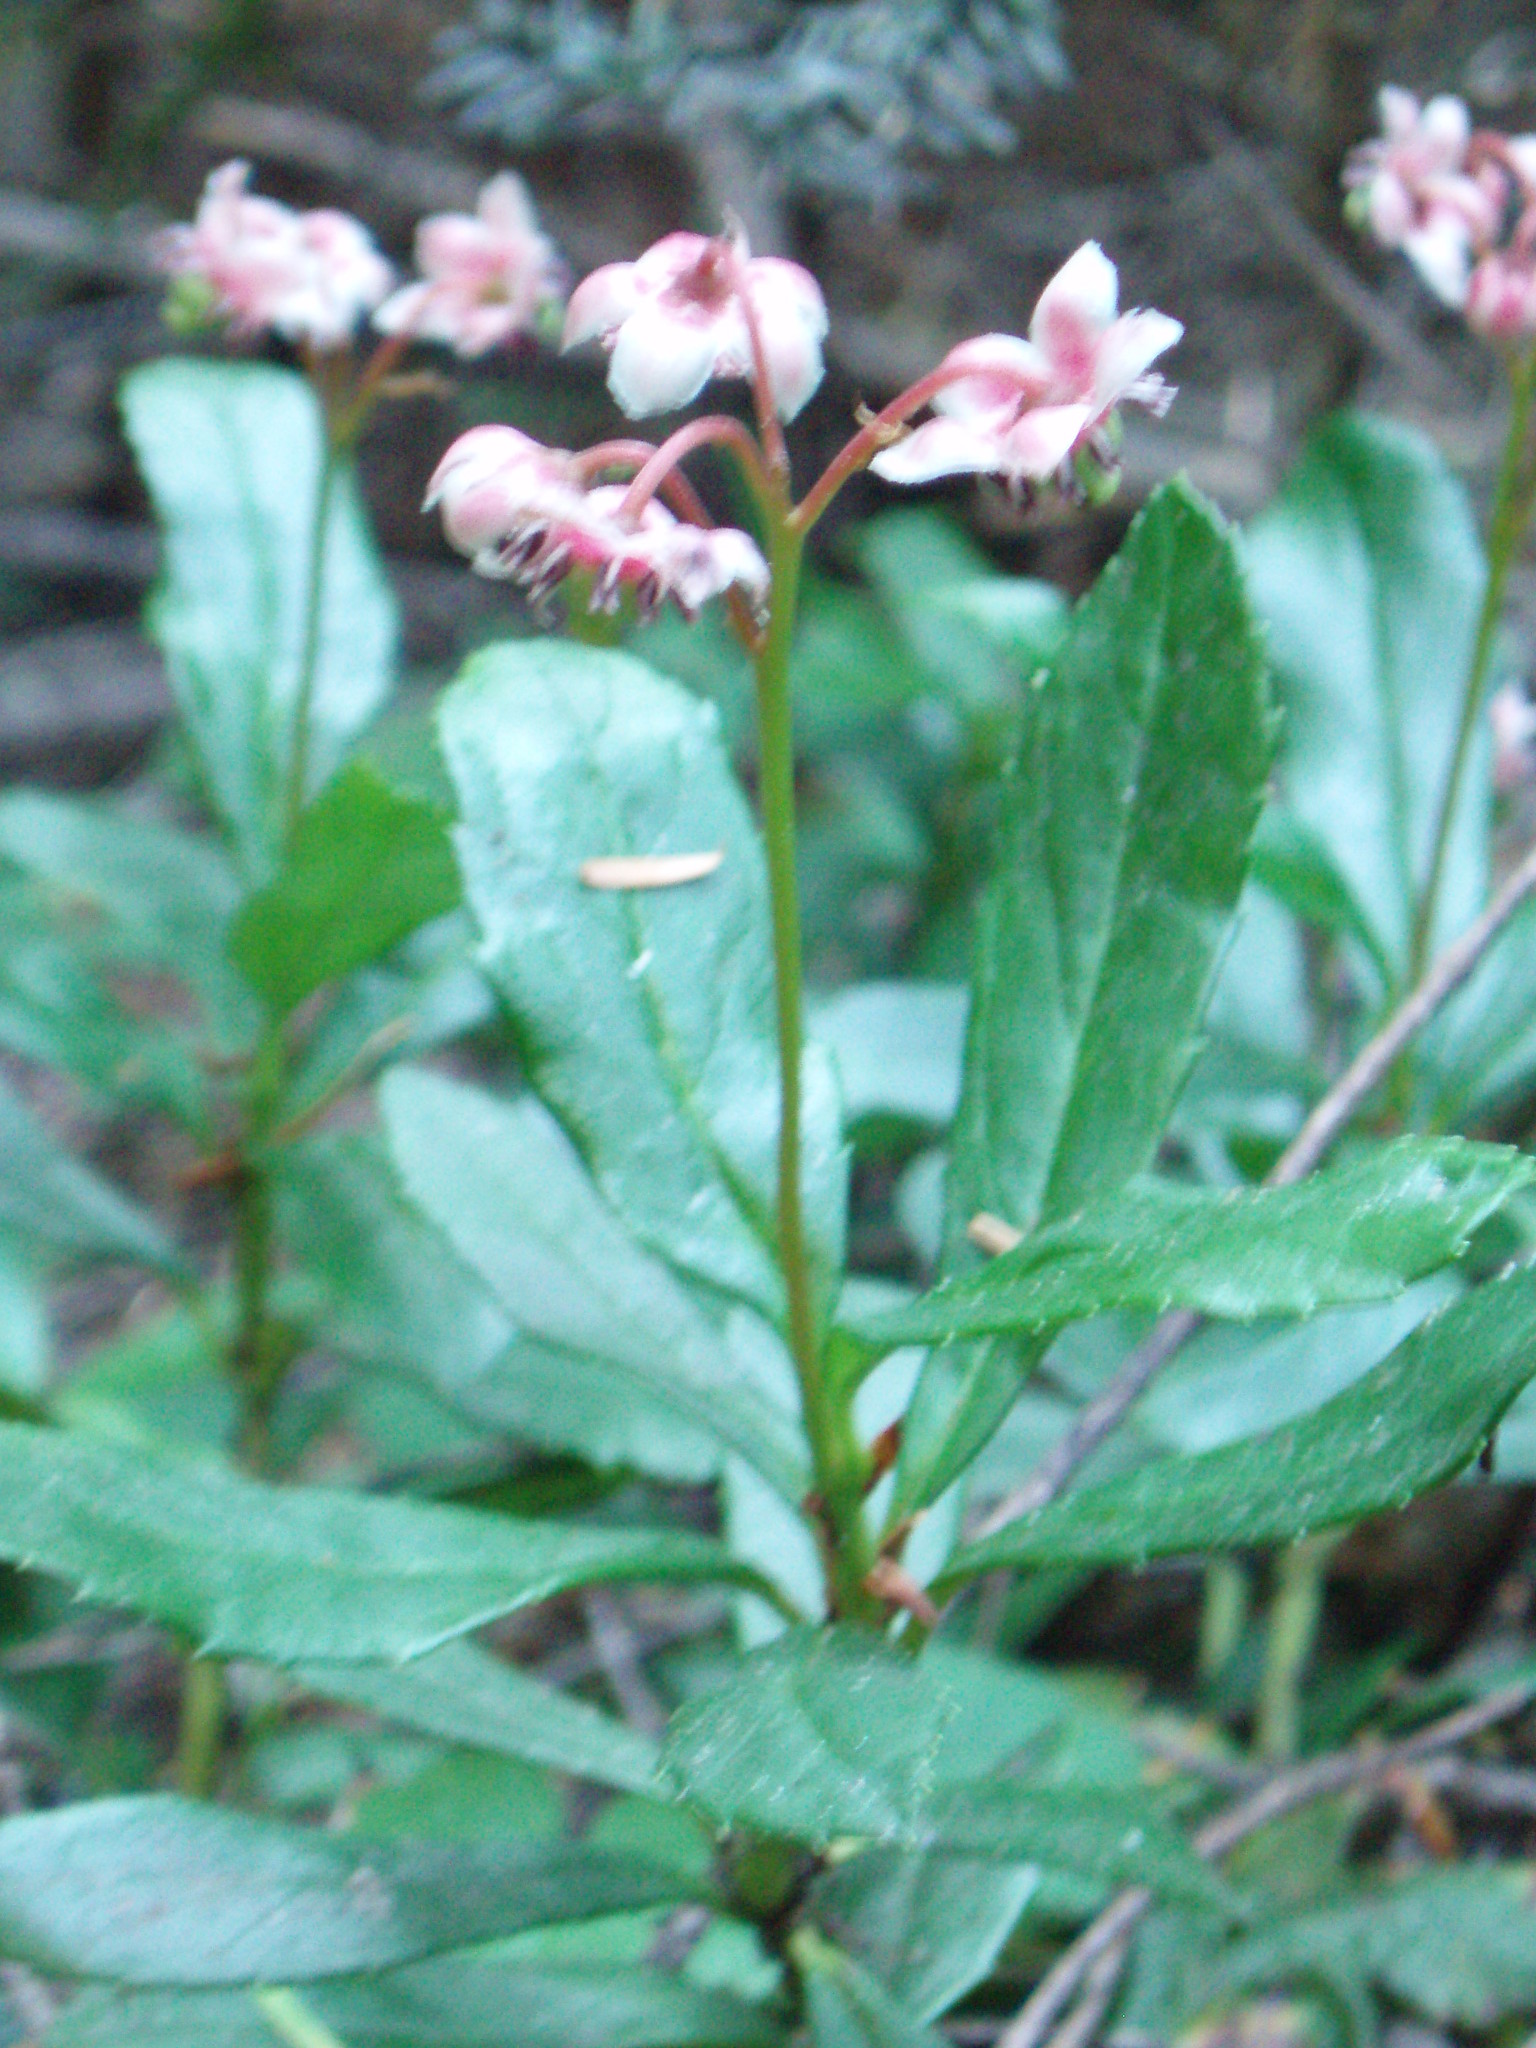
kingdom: Plantae
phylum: Tracheophyta
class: Magnoliopsida
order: Ericales
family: Ericaceae
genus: Chimaphila
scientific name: Chimaphila umbellata
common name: Pipsissewa
